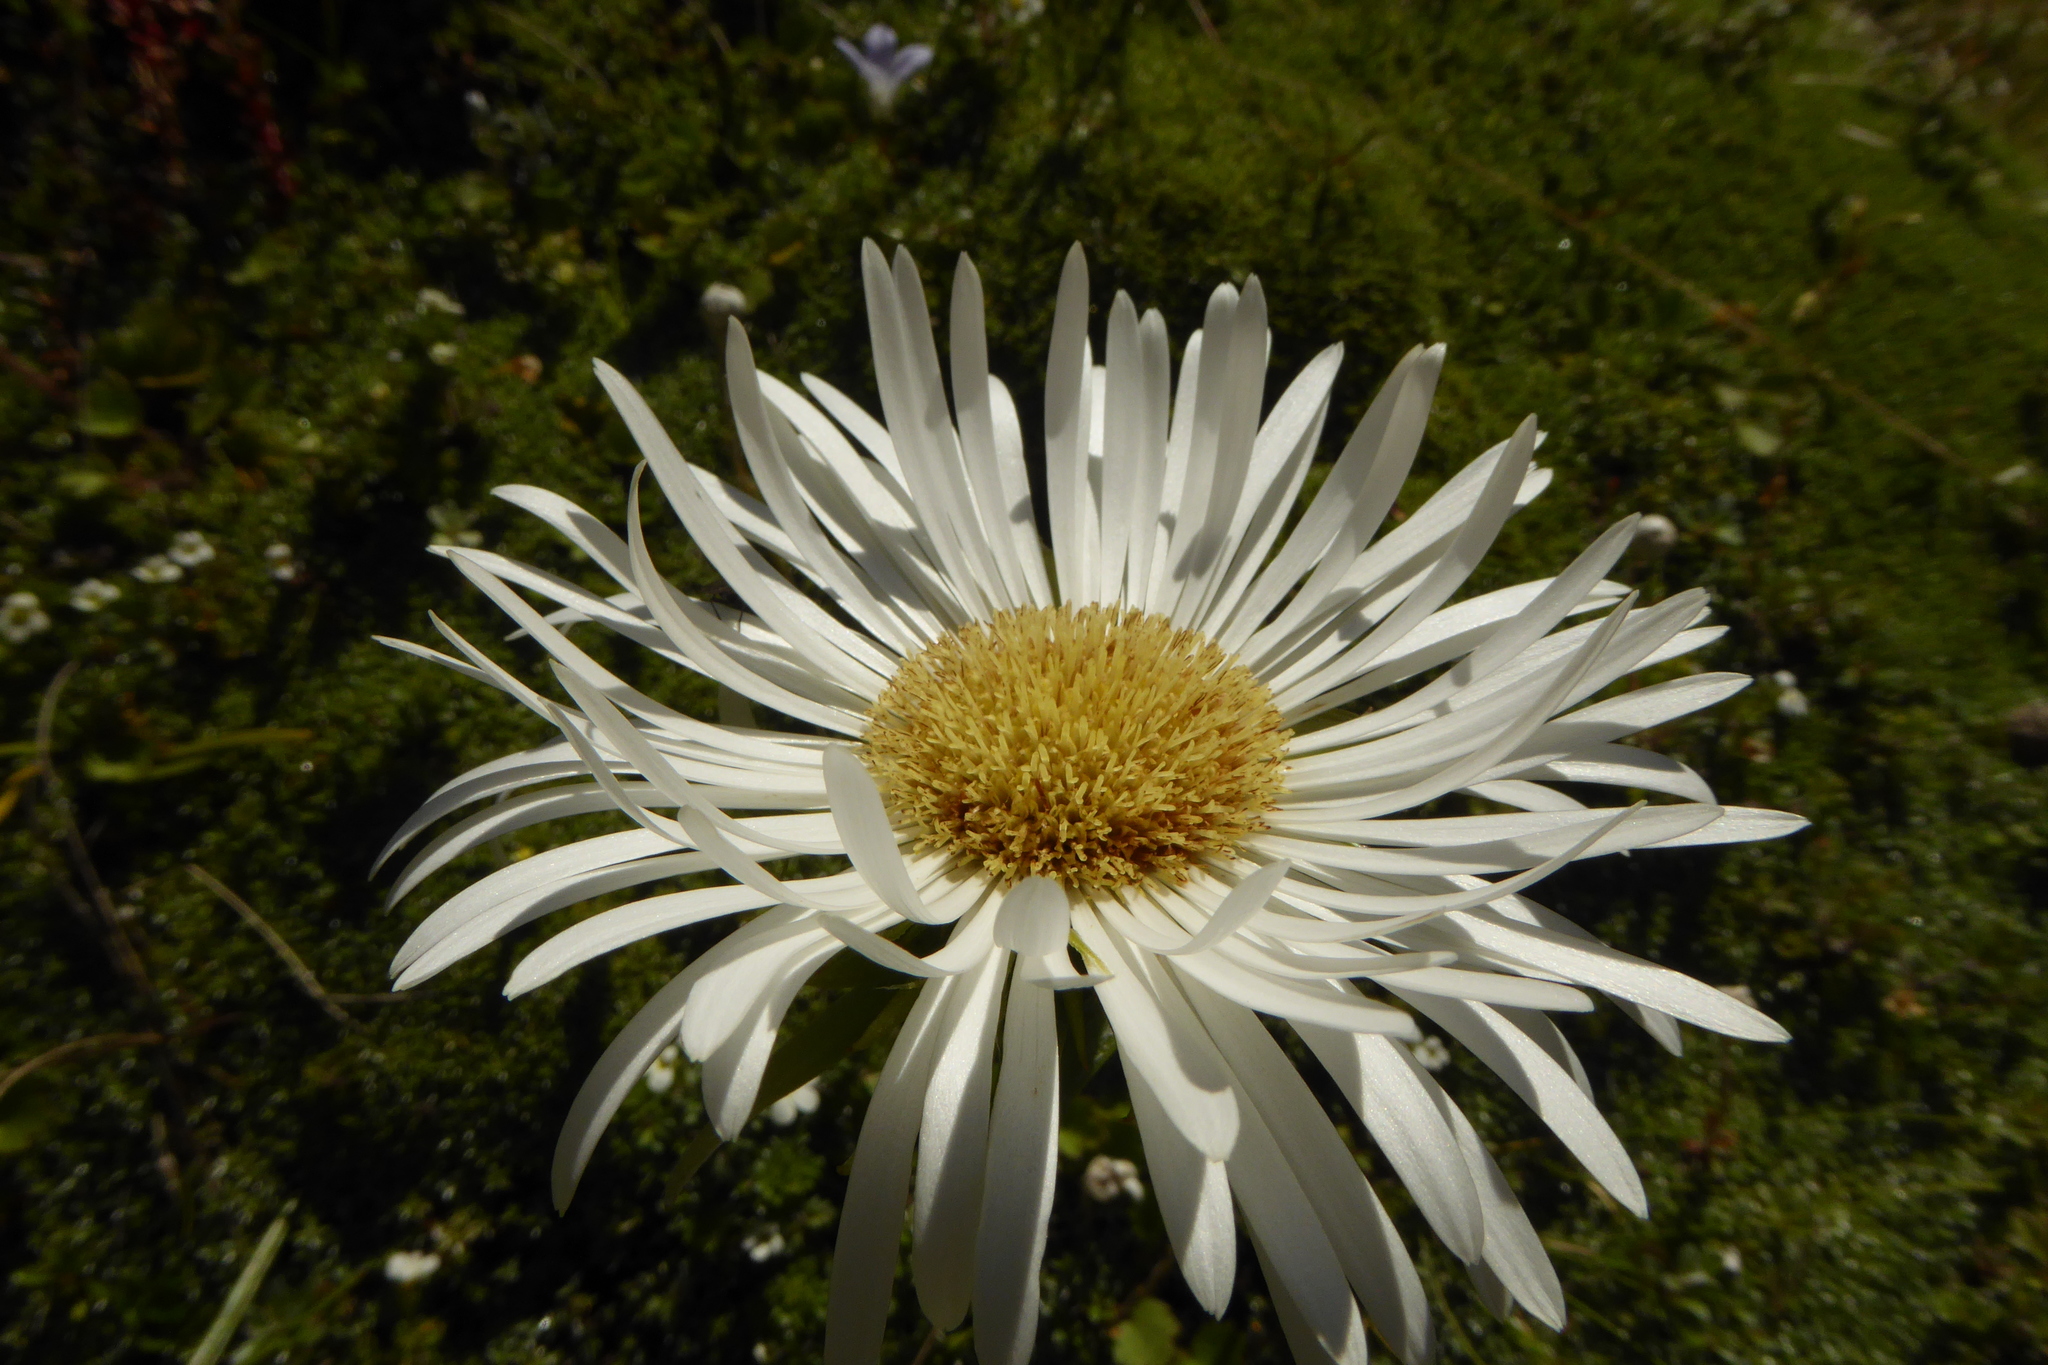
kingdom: Plantae
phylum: Tracheophyta
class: Magnoliopsida
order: Asterales
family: Asteraceae
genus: Celmisia
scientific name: Celmisia holosericea
